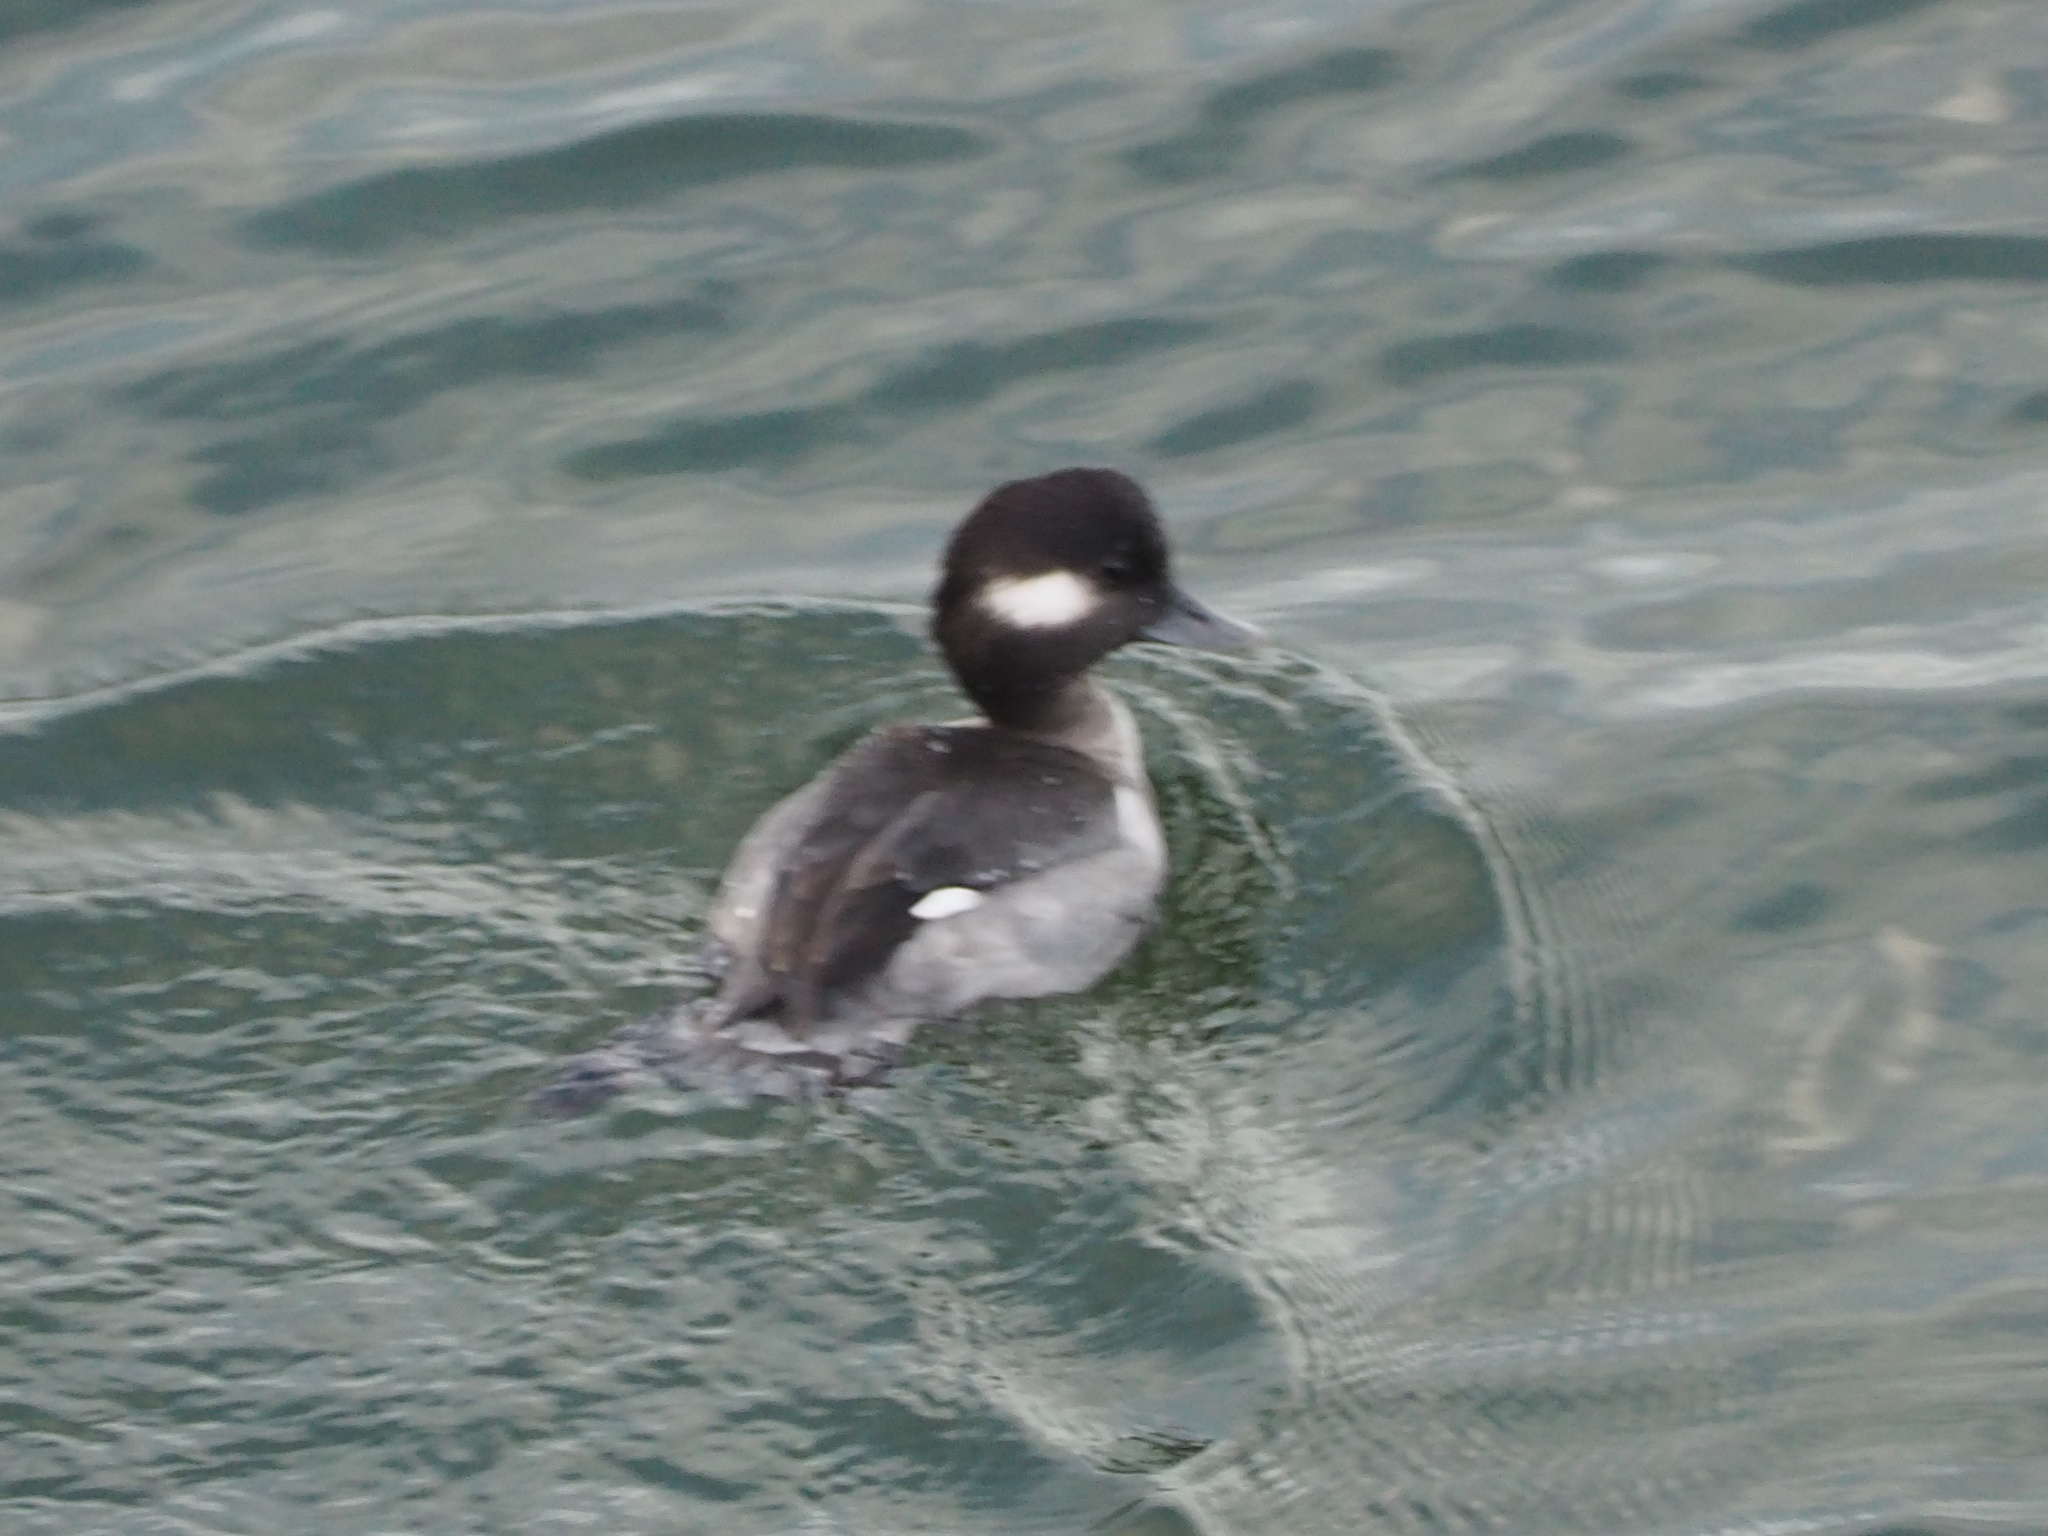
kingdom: Animalia
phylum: Chordata
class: Aves
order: Anseriformes
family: Anatidae
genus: Bucephala
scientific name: Bucephala albeola
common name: Bufflehead
